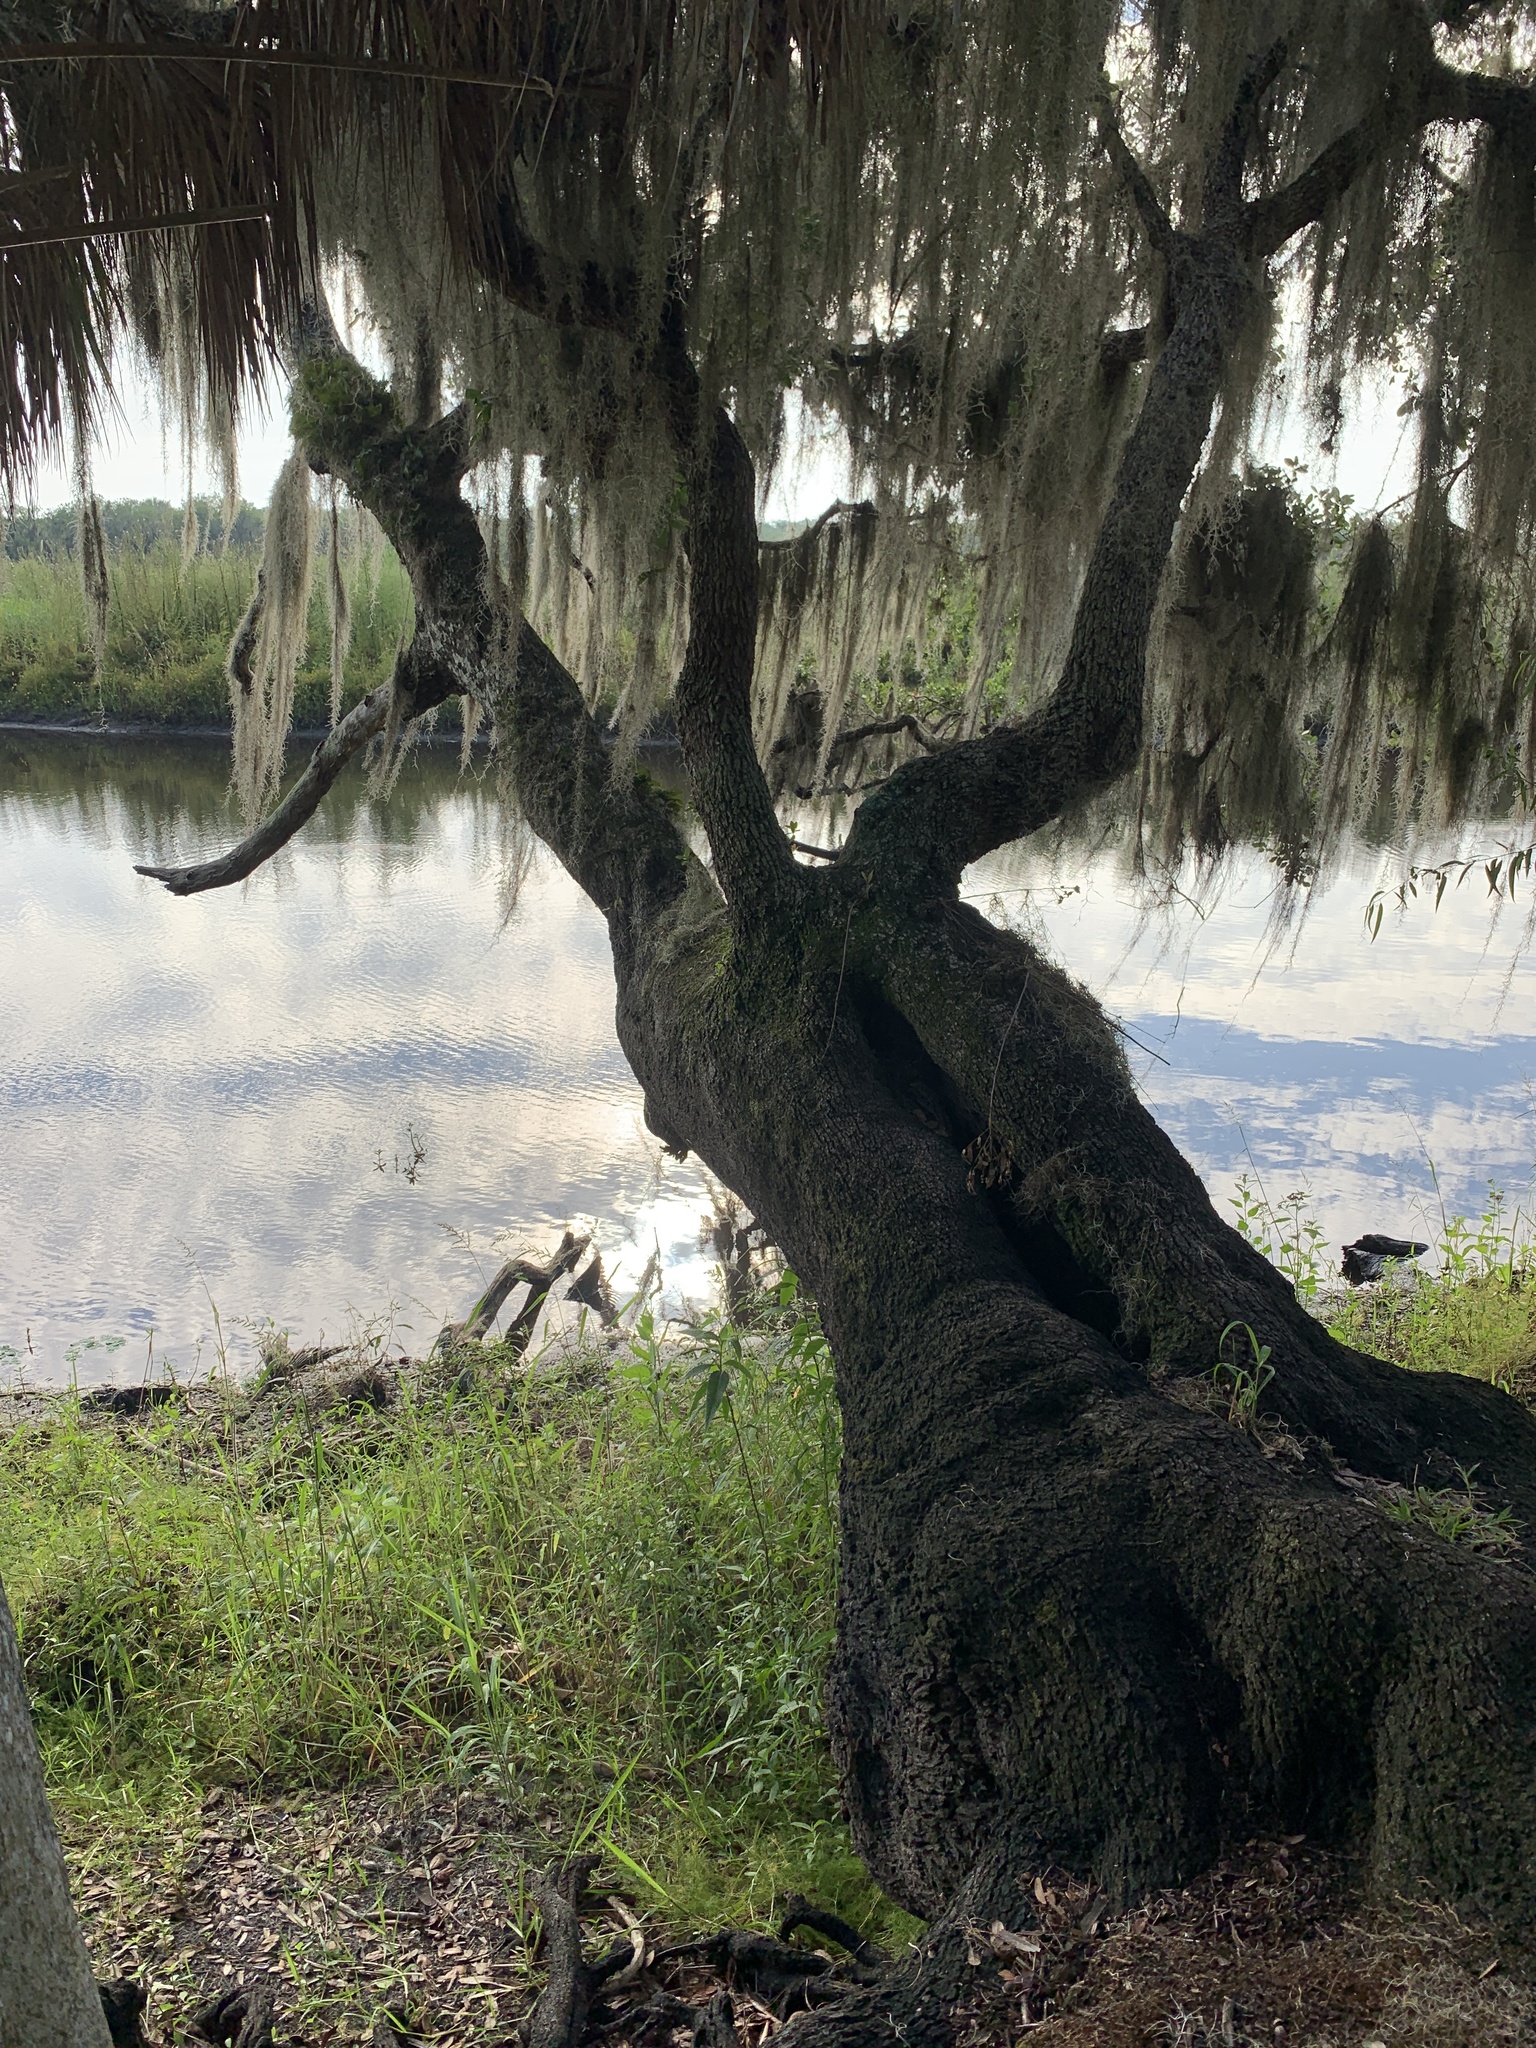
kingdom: Plantae
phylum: Tracheophyta
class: Magnoliopsida
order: Fagales
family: Fagaceae
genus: Quercus
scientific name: Quercus virginiana
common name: Southern live oak
